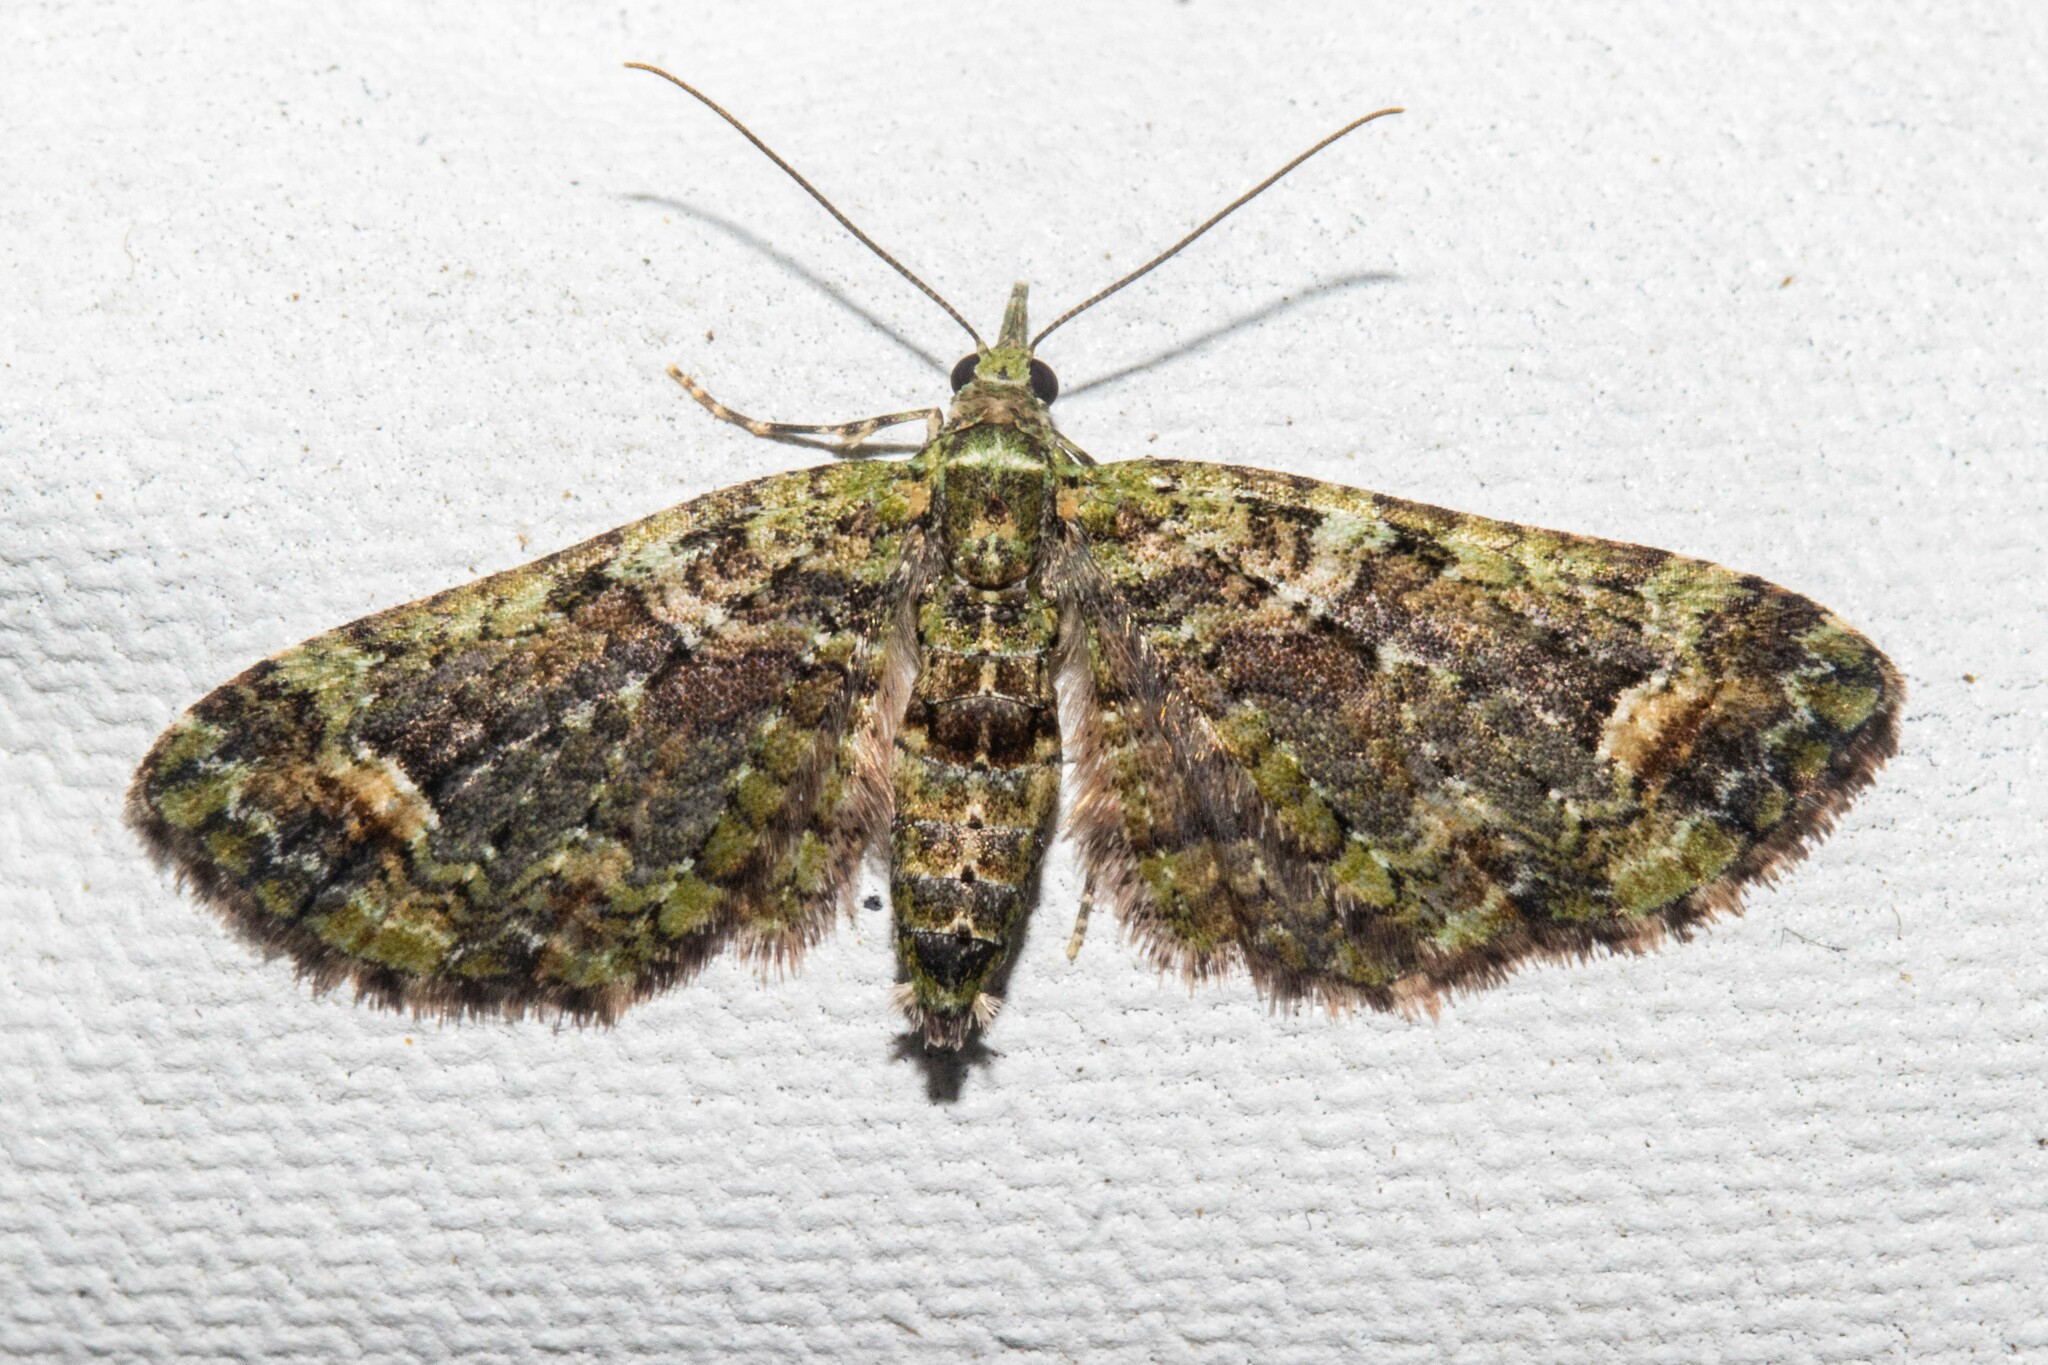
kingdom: Animalia
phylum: Arthropoda
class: Insecta
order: Lepidoptera
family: Geometridae
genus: Idaea
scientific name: Idaea mutanda
